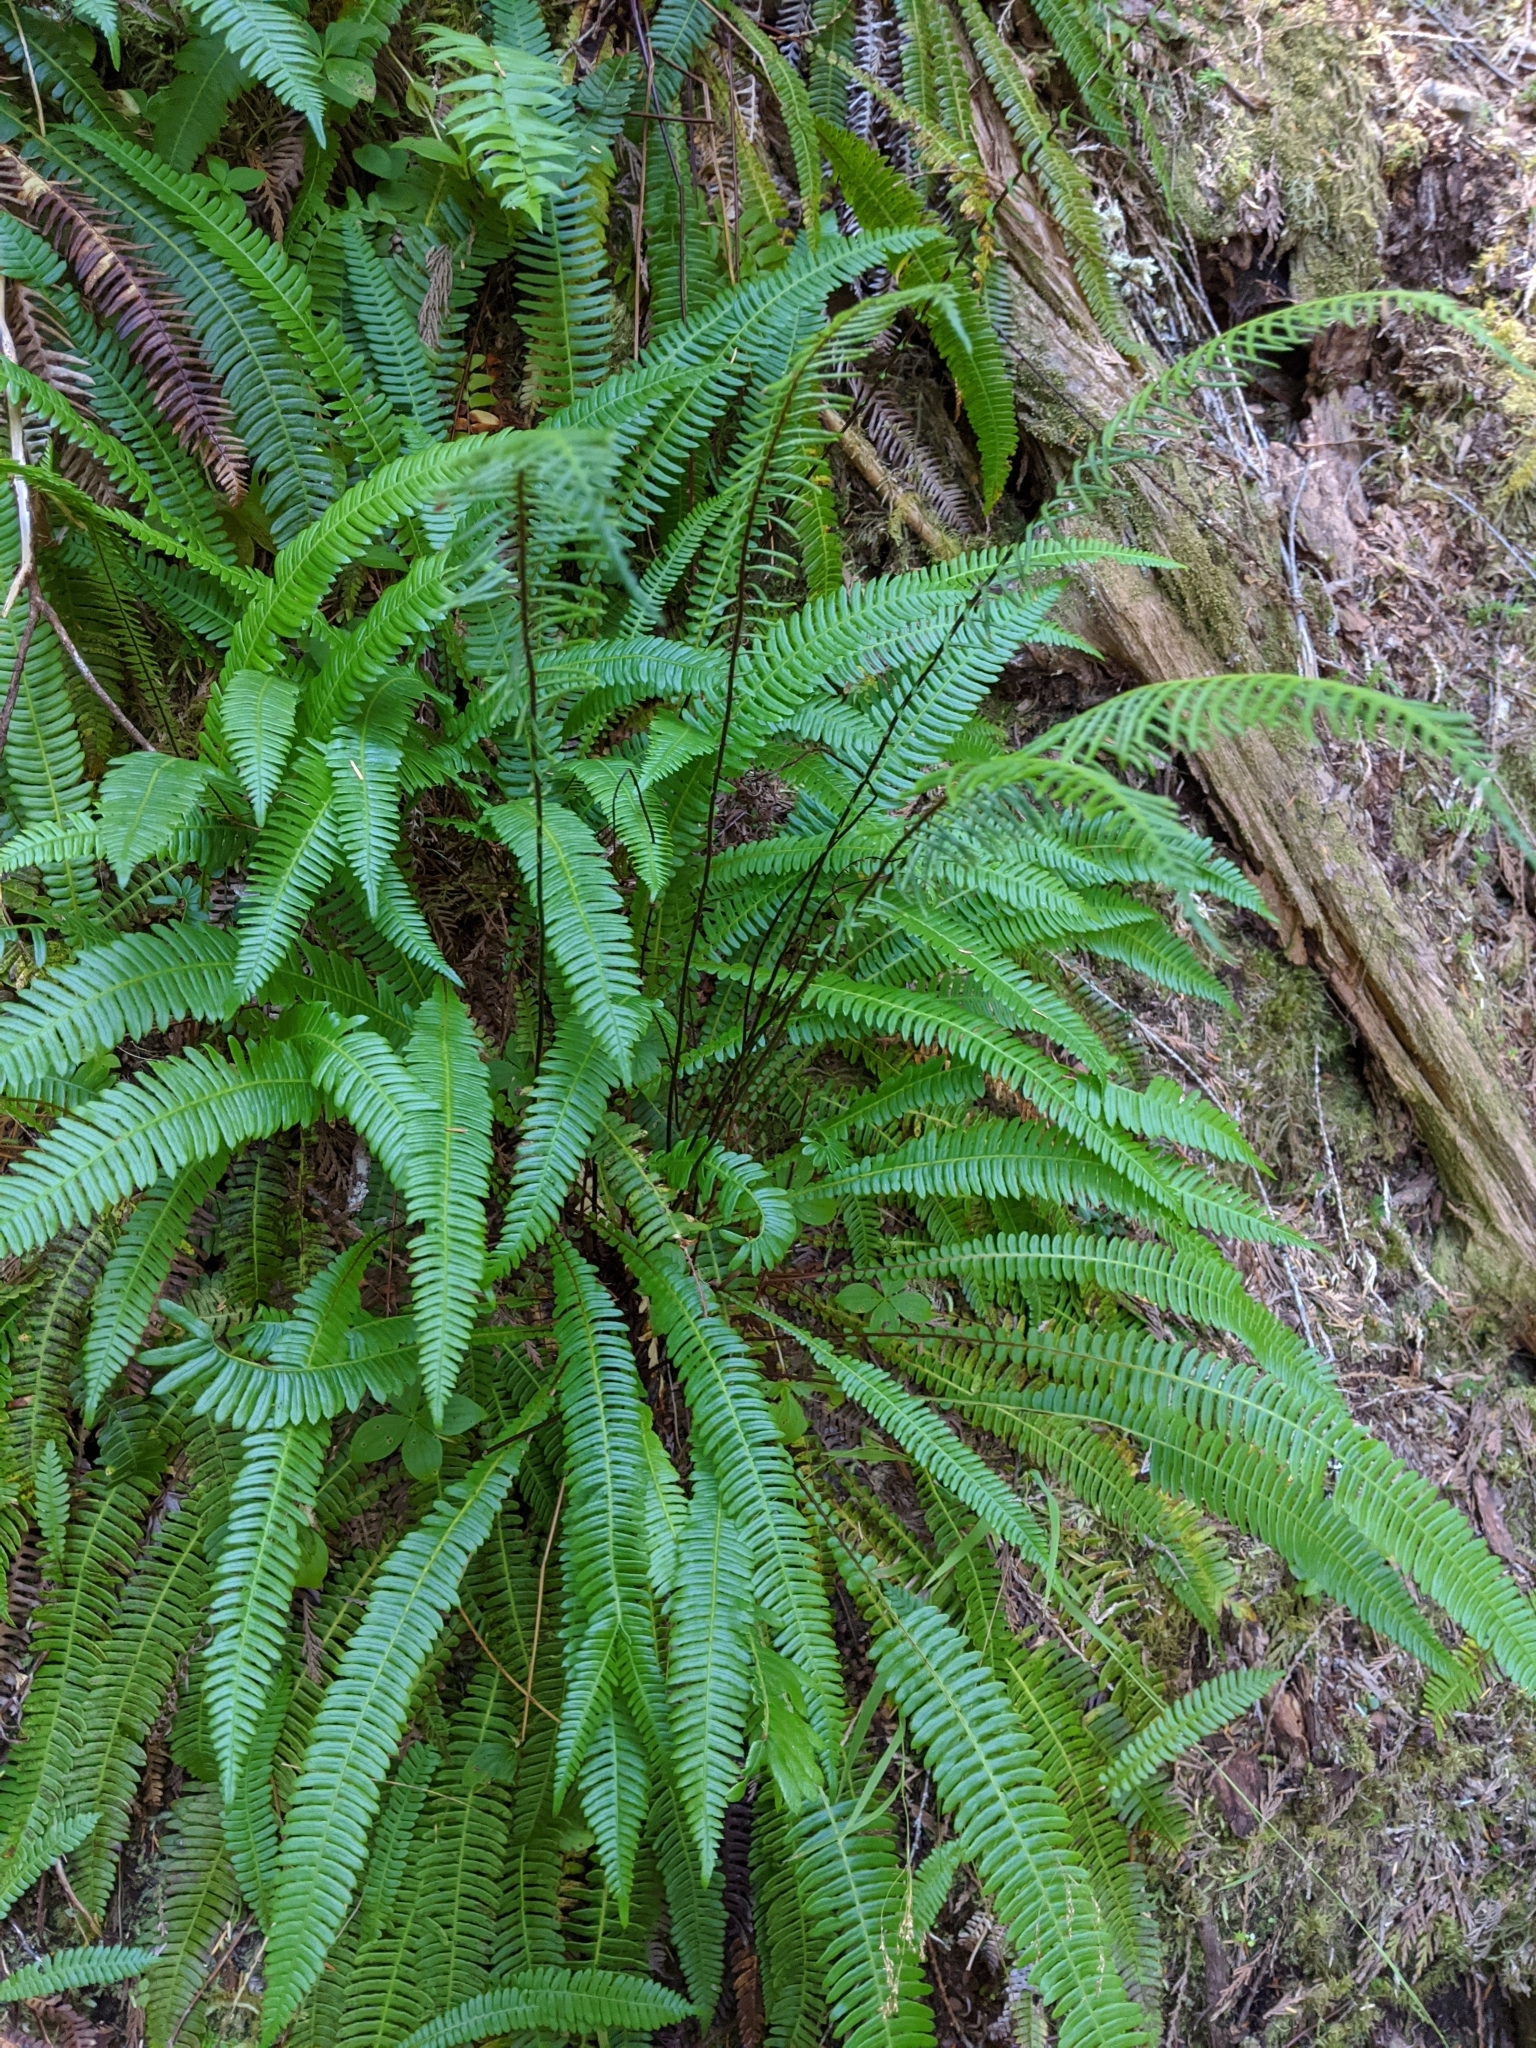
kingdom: Plantae
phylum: Tracheophyta
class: Polypodiopsida
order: Polypodiales
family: Blechnaceae
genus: Struthiopteris
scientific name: Struthiopteris spicant
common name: Deer fern
